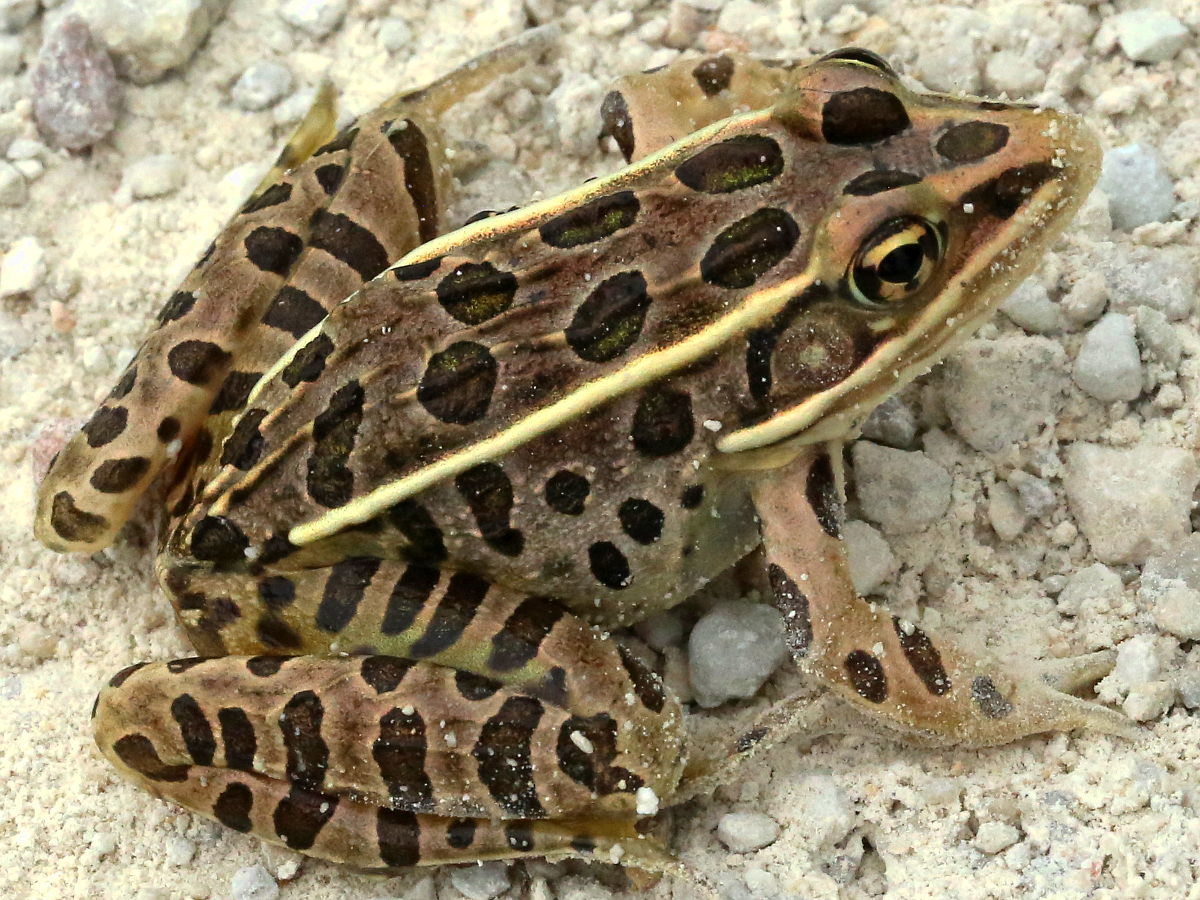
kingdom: Animalia
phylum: Chordata
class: Amphibia
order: Anura
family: Ranidae
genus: Lithobates
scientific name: Lithobates pipiens
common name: Northern leopard frog
